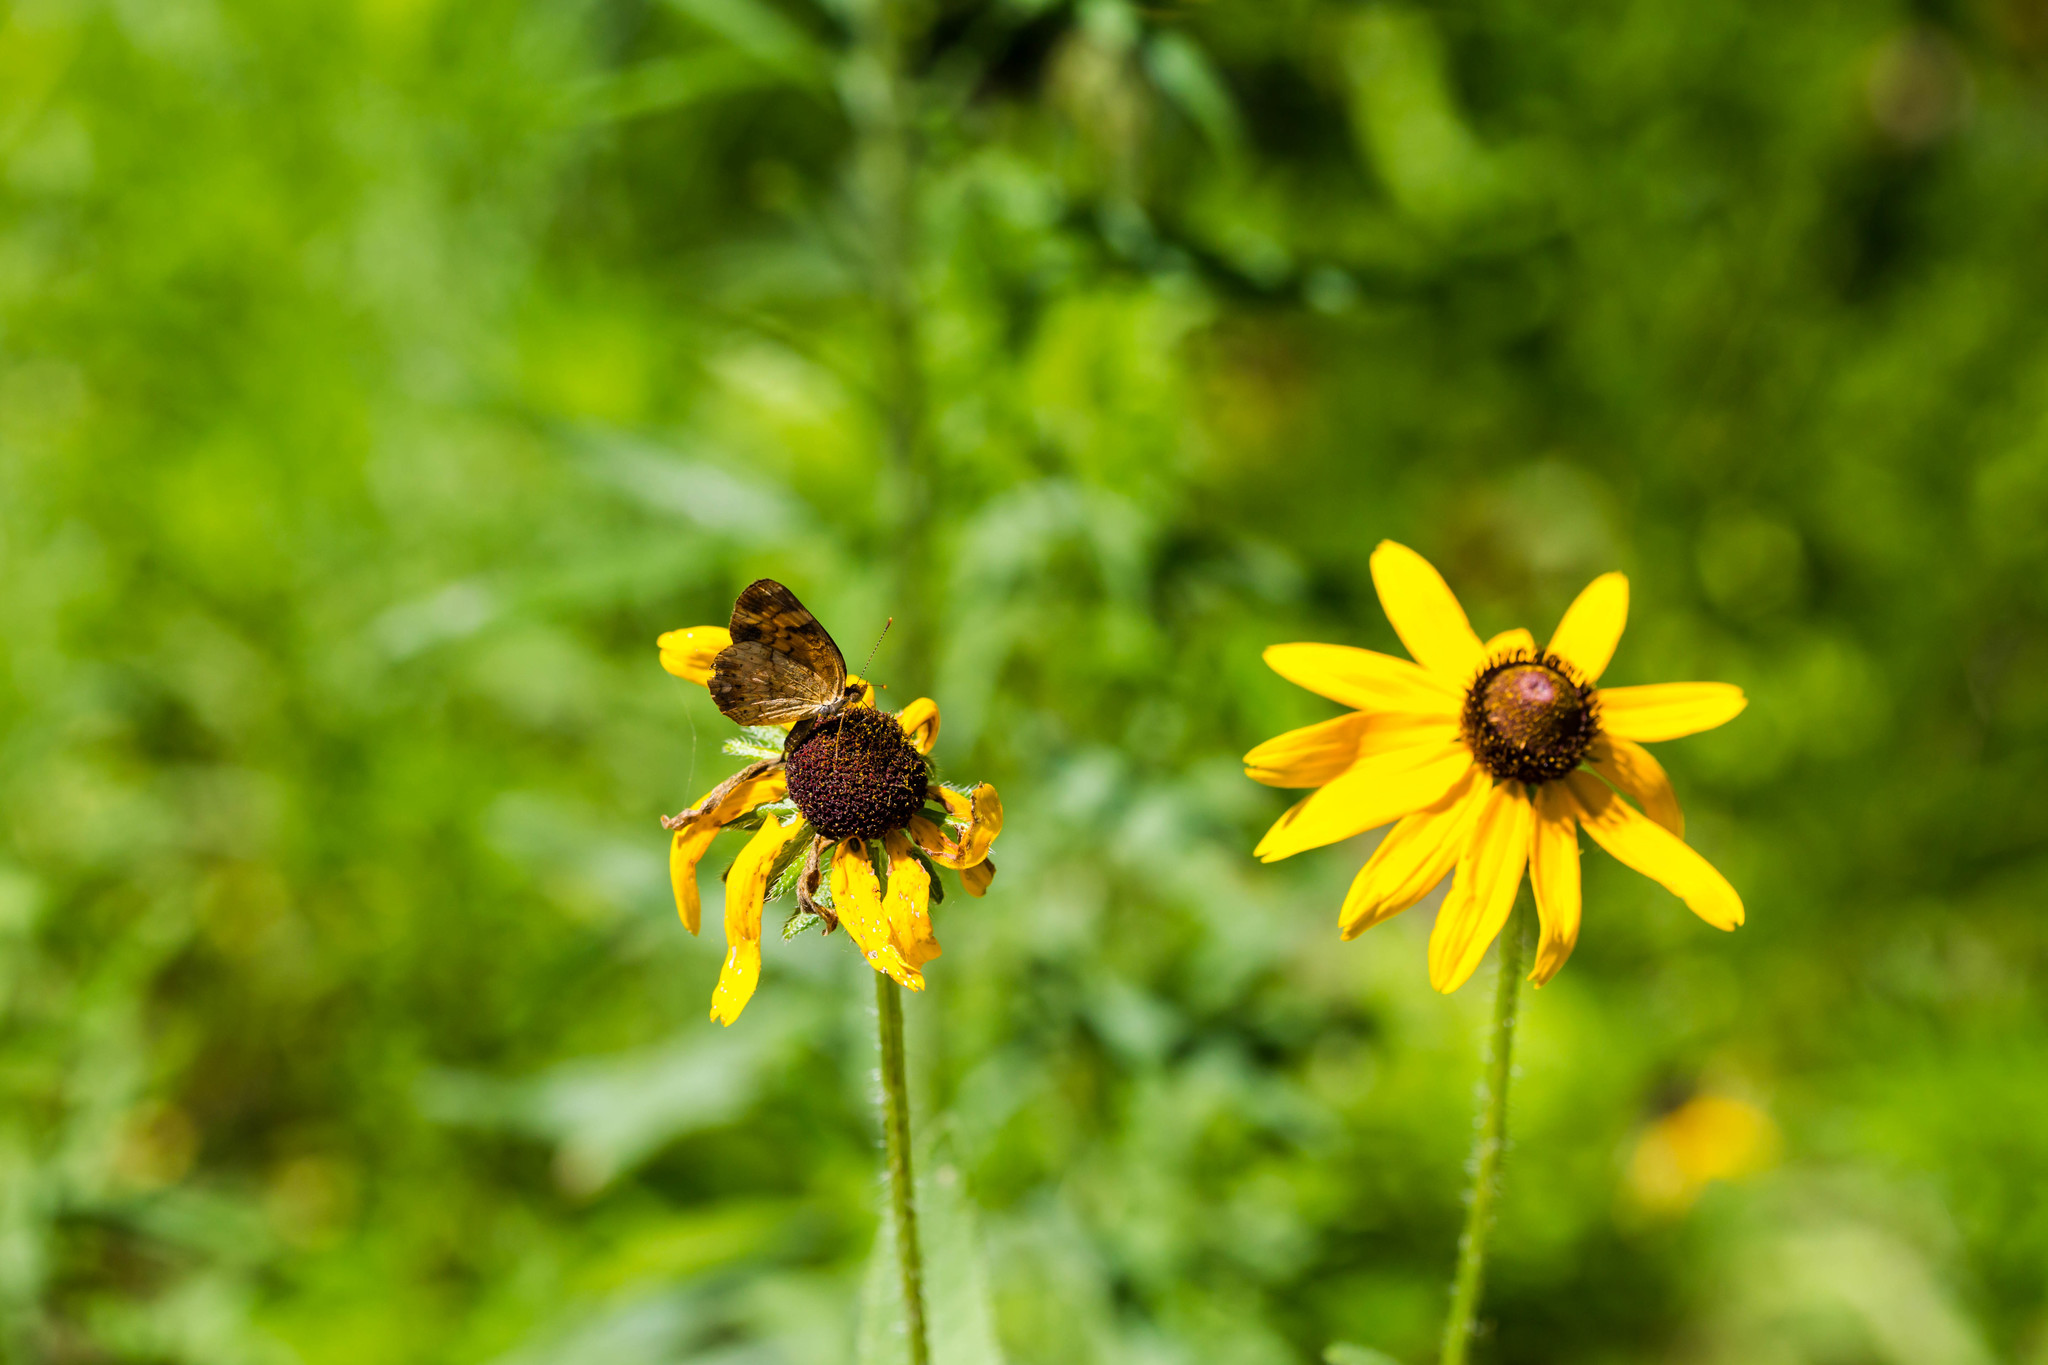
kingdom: Animalia
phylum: Arthropoda
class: Insecta
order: Lepidoptera
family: Nymphalidae
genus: Phyciodes
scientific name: Phyciodes tharos
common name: Pearl crescent
